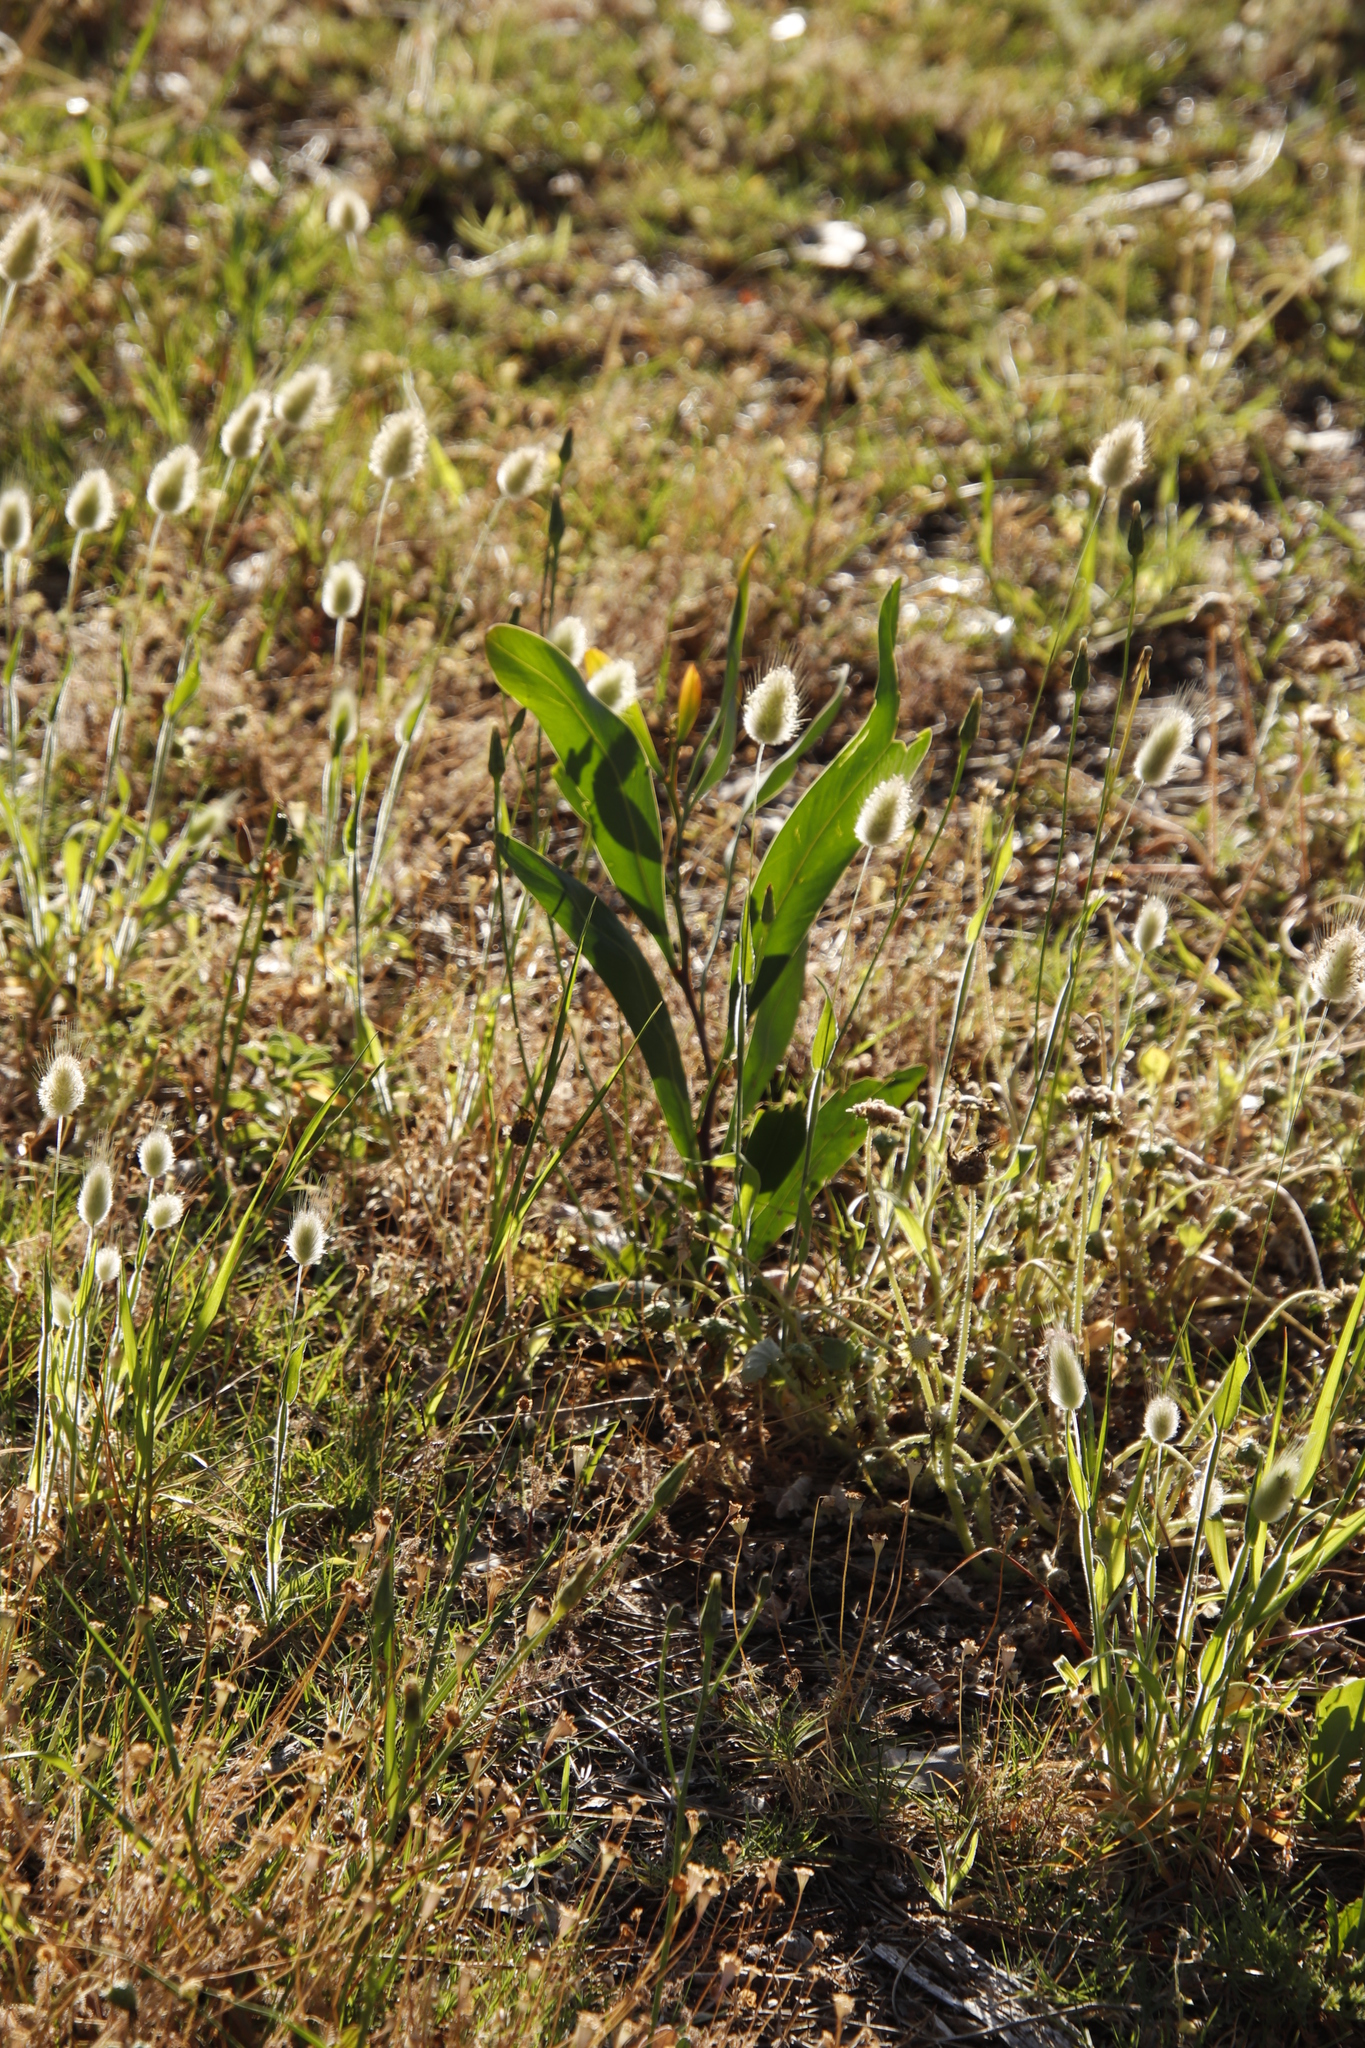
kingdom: Plantae
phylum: Tracheophyta
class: Magnoliopsida
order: Fabales
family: Fabaceae
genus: Acacia
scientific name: Acacia saligna
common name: Orange wattle
